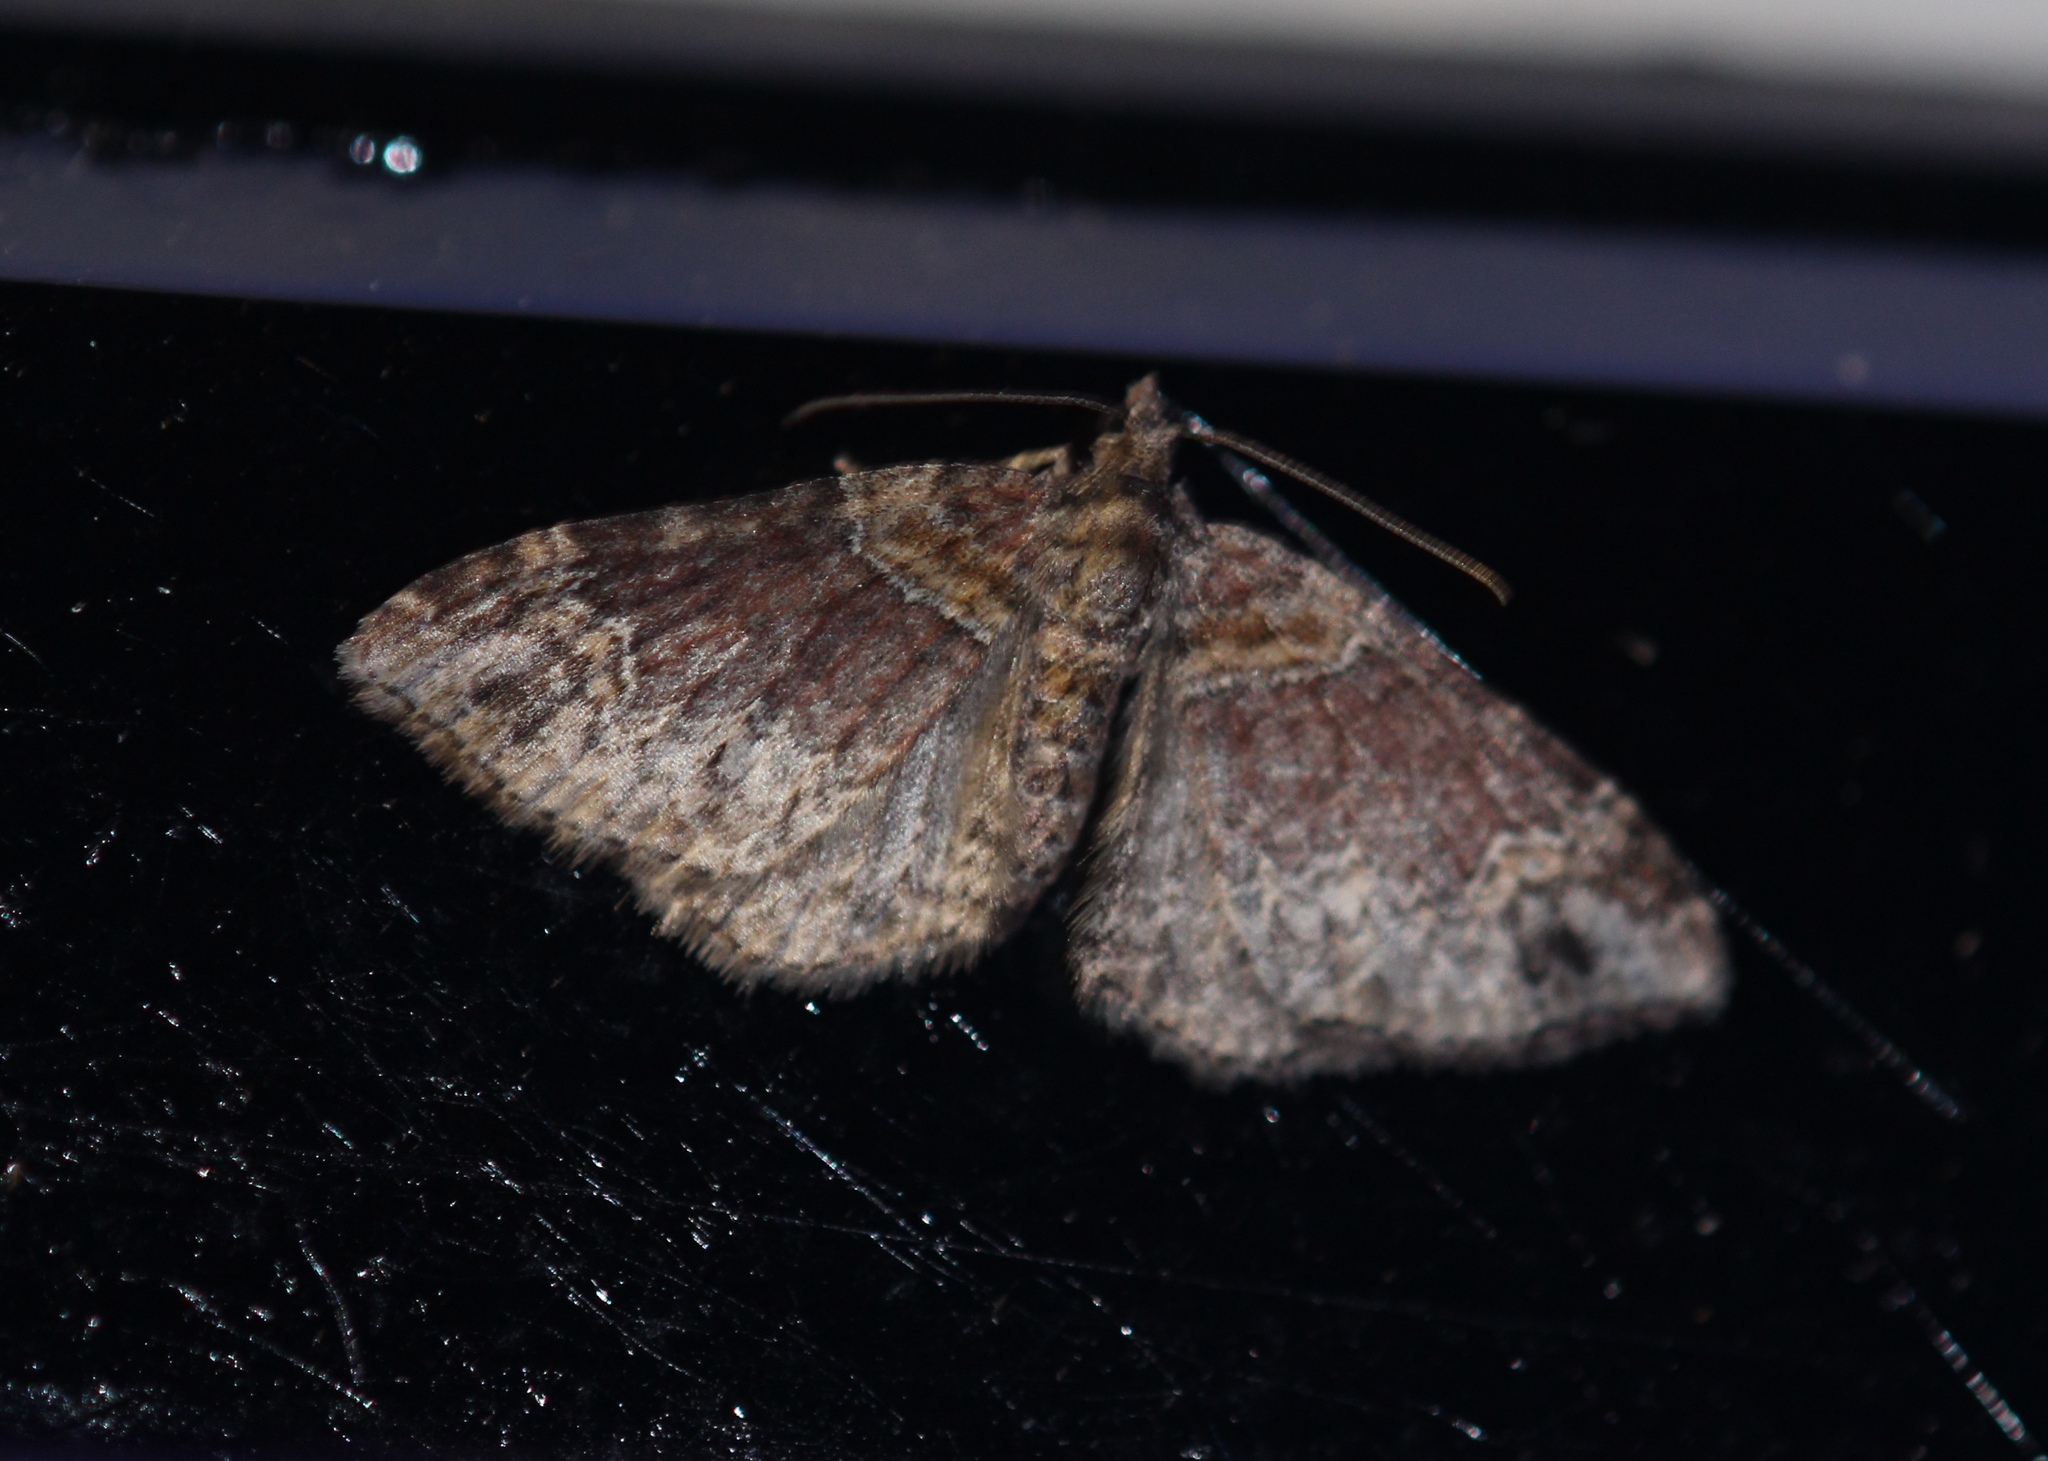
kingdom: Animalia
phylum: Arthropoda
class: Insecta
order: Lepidoptera
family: Geometridae
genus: Xanthorhoe
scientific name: Xanthorhoe ferrugata
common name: Dark-barred twin-spot carpet
